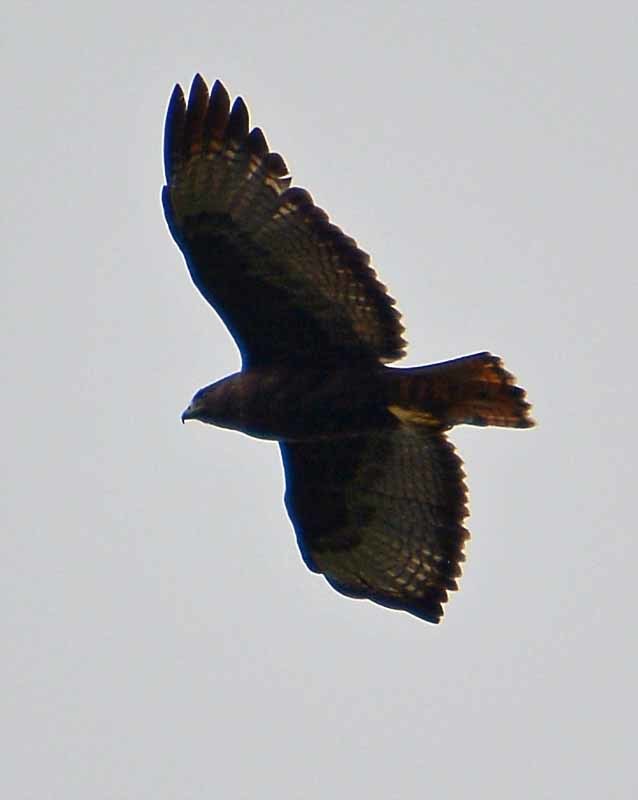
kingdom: Animalia
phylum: Chordata
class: Aves
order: Accipitriformes
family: Accipitridae
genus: Buteo
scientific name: Buteo jamaicensis
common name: Red-tailed hawk
